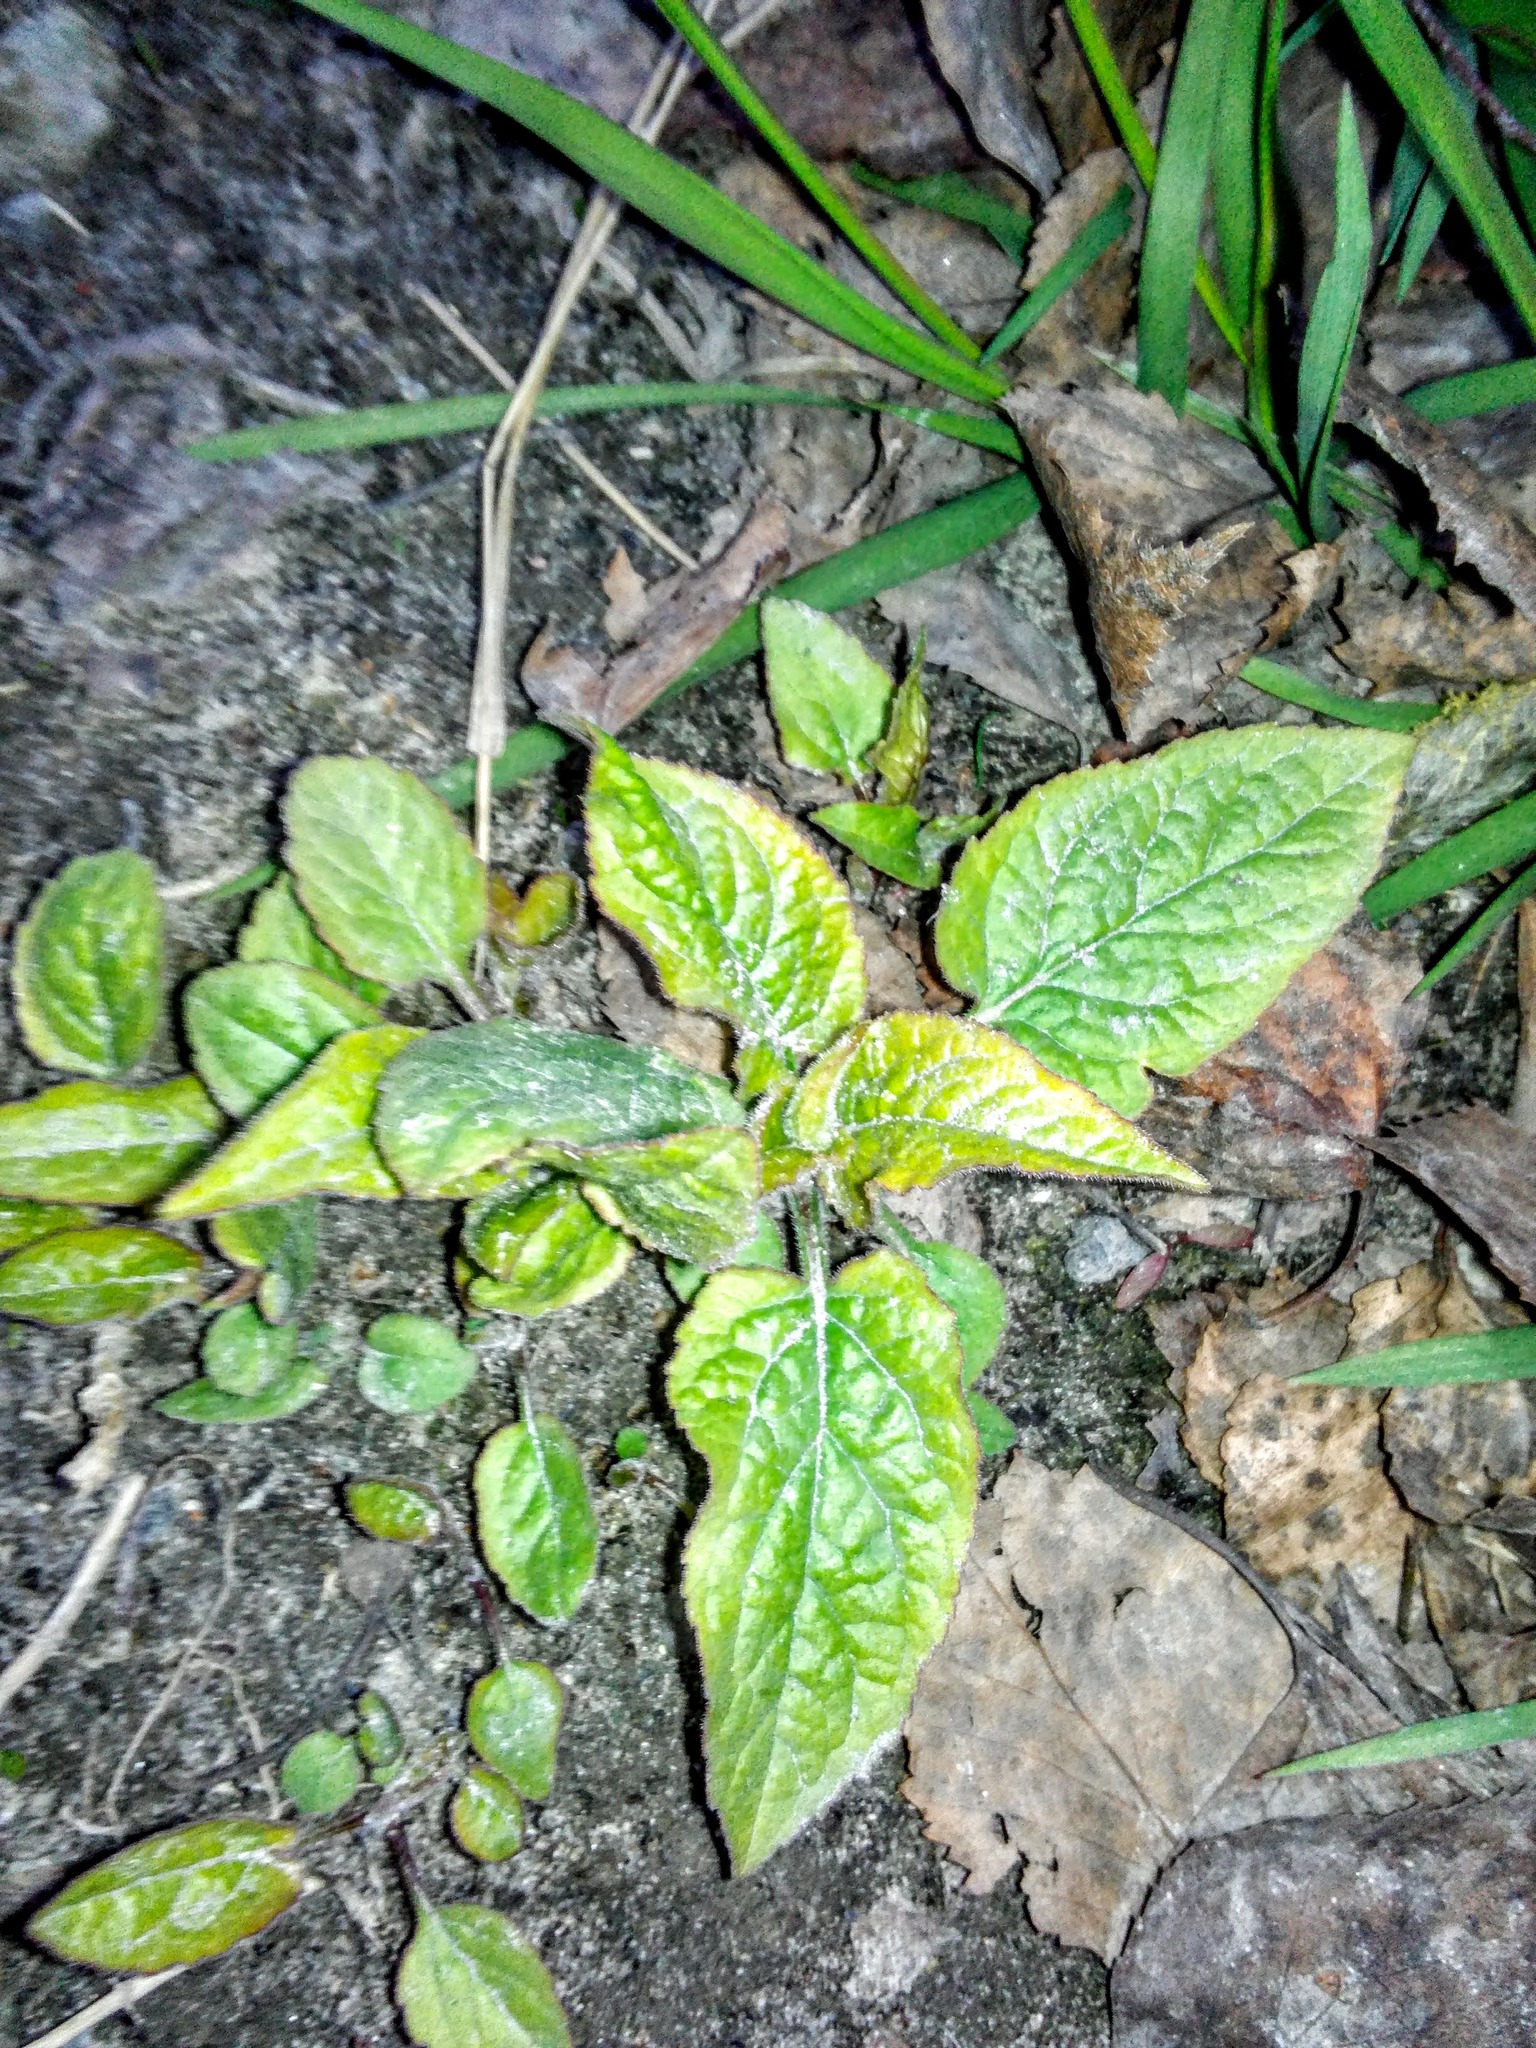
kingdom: Plantae
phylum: Tracheophyta
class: Magnoliopsida
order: Asterales
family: Campanulaceae
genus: Campanula
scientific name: Campanula rapunculoides
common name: Creeping bellflower
